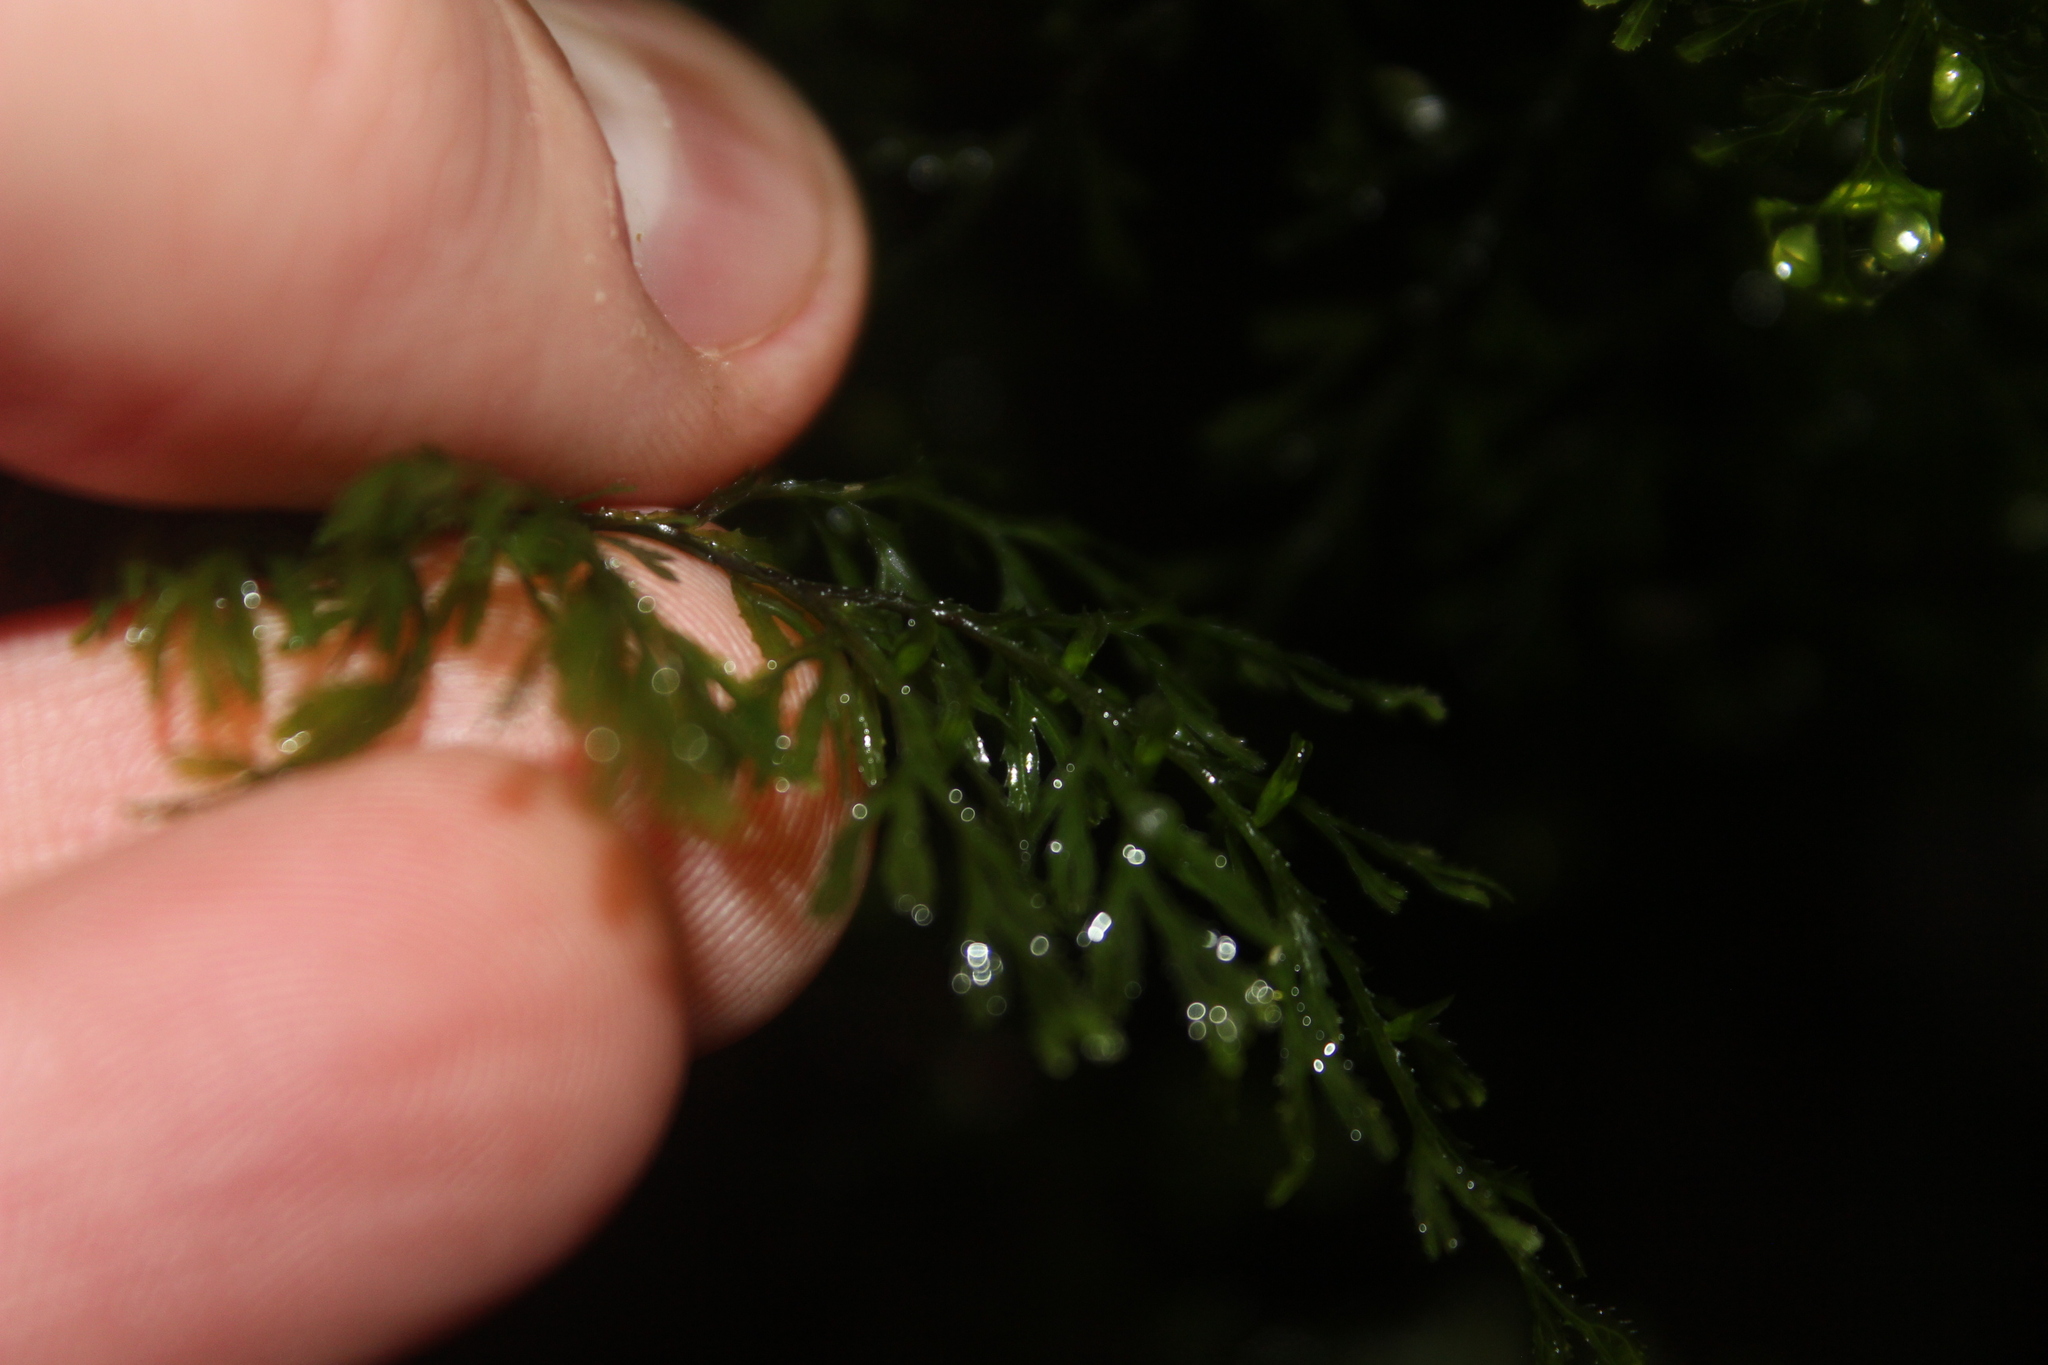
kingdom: Plantae
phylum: Tracheophyta
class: Polypodiopsida
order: Hymenophyllales
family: Hymenophyllaceae
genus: Hymenophyllum
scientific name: Hymenophyllum multifidum
